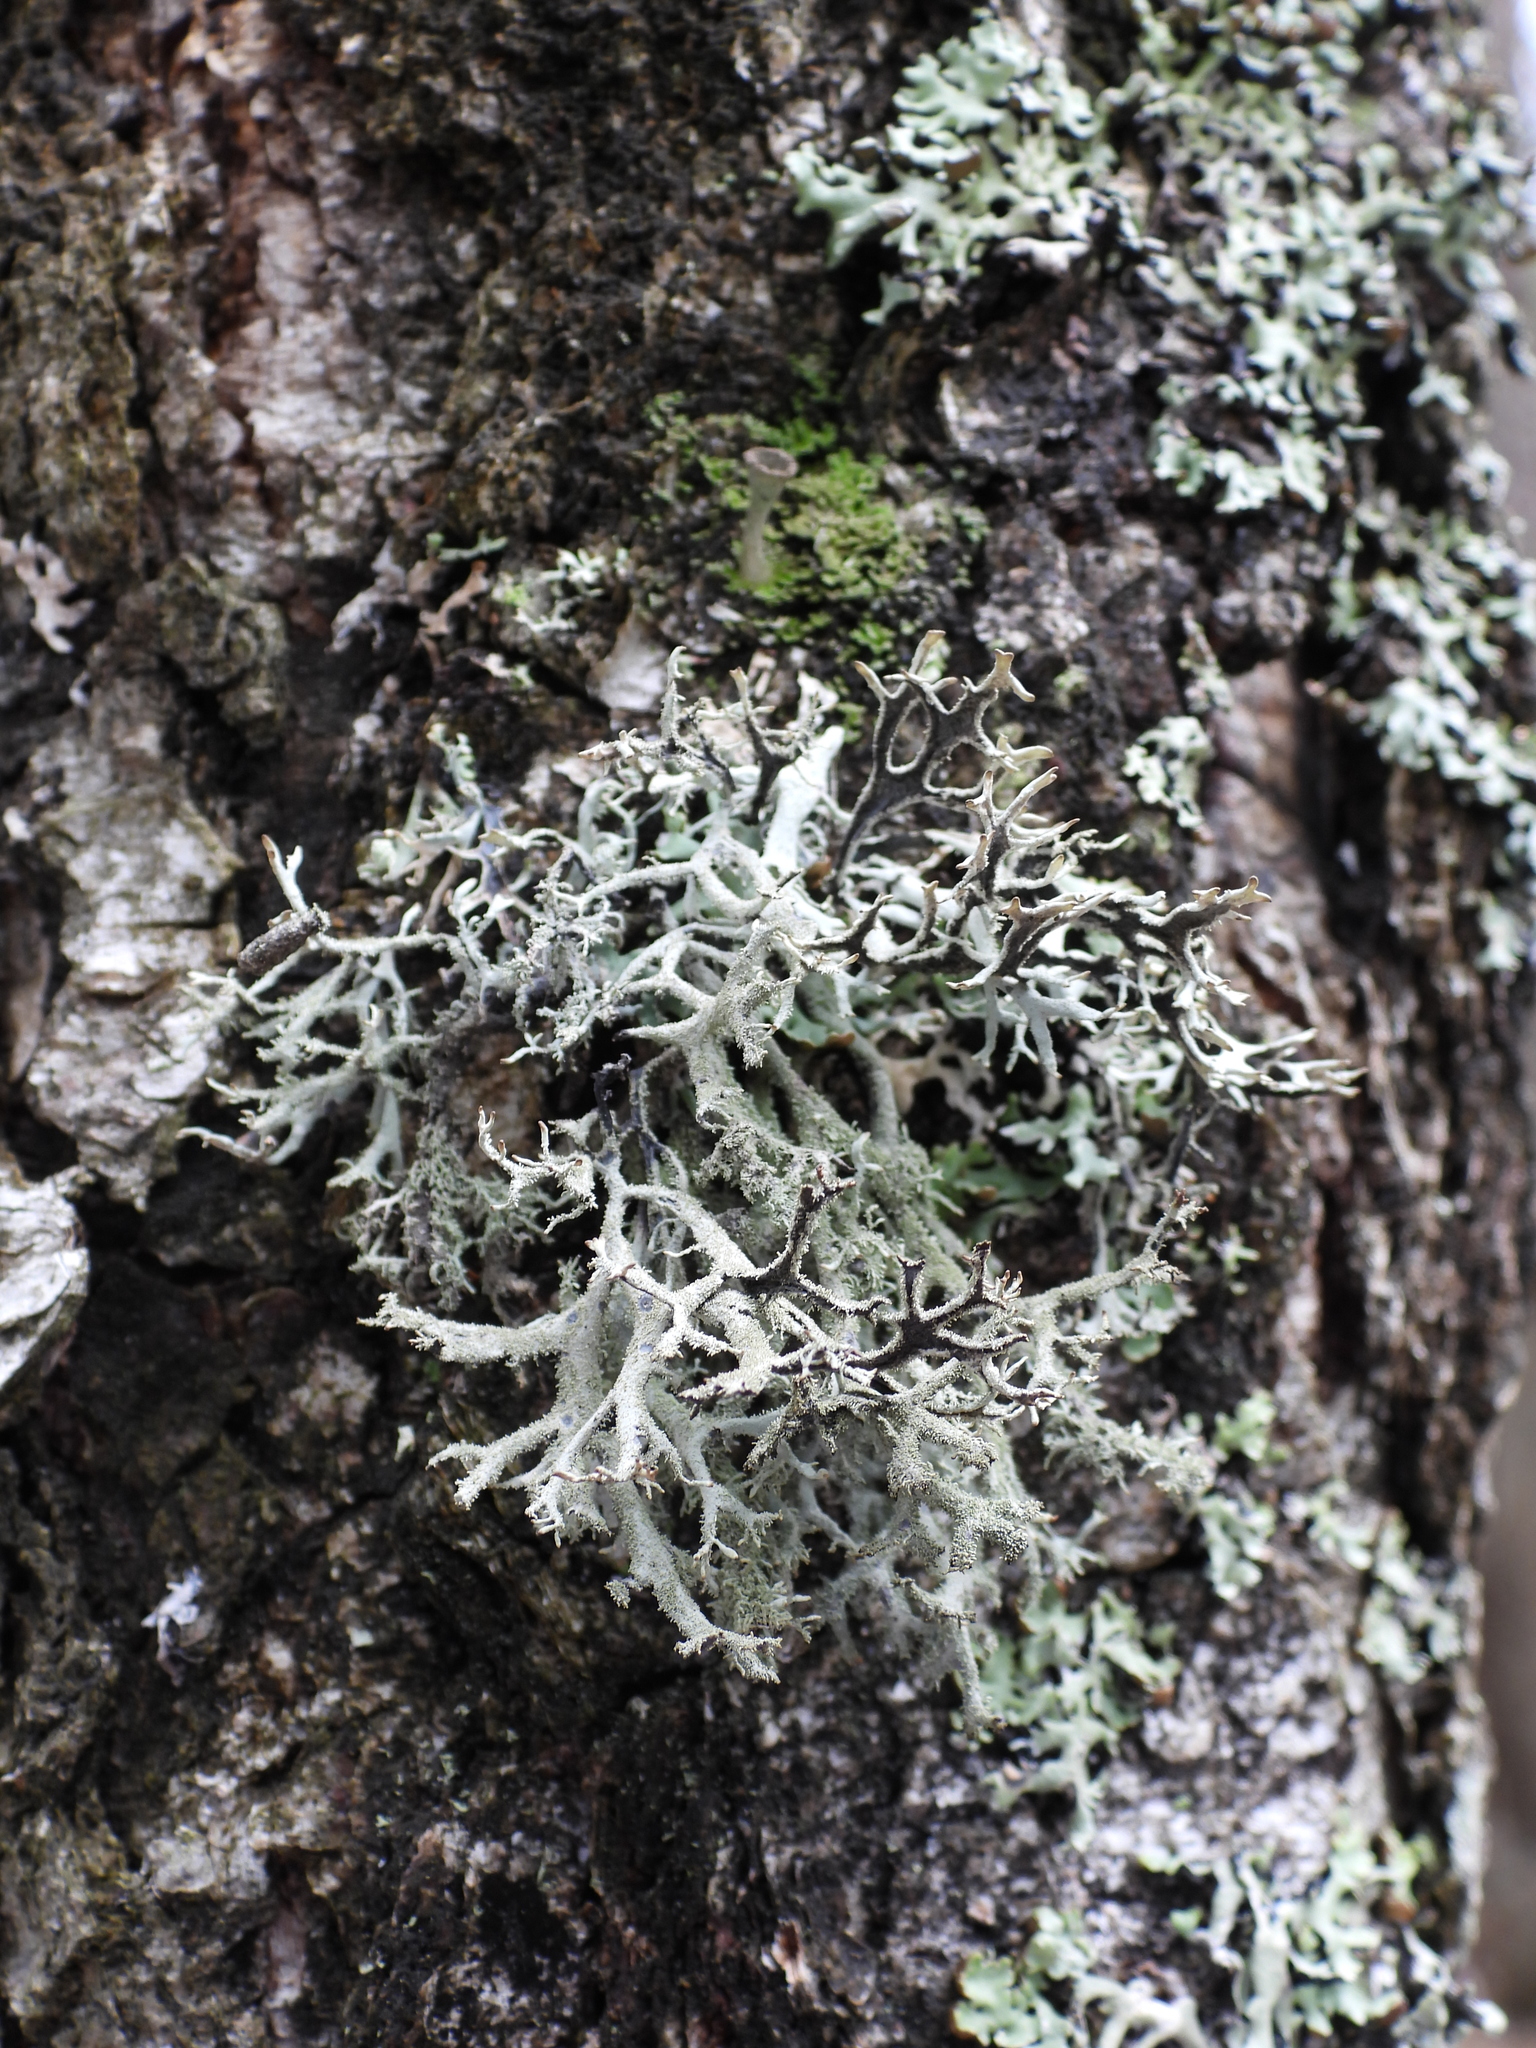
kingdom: Fungi
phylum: Ascomycota
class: Lecanoromycetes
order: Lecanorales
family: Parmeliaceae
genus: Pseudevernia
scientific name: Pseudevernia furfuracea
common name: Tree moss
